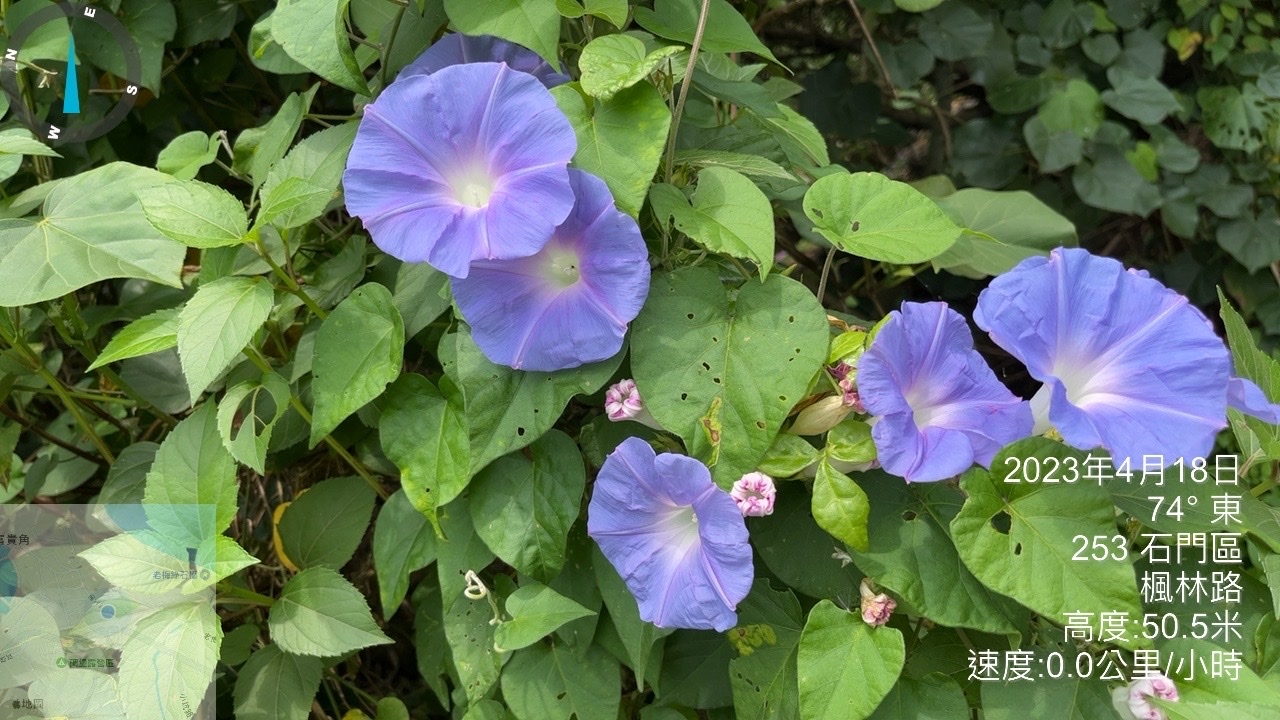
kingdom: Plantae
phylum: Tracheophyta
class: Magnoliopsida
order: Solanales
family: Convolvulaceae
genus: Ipomoea
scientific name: Ipomoea indica
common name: Blue dawnflower
